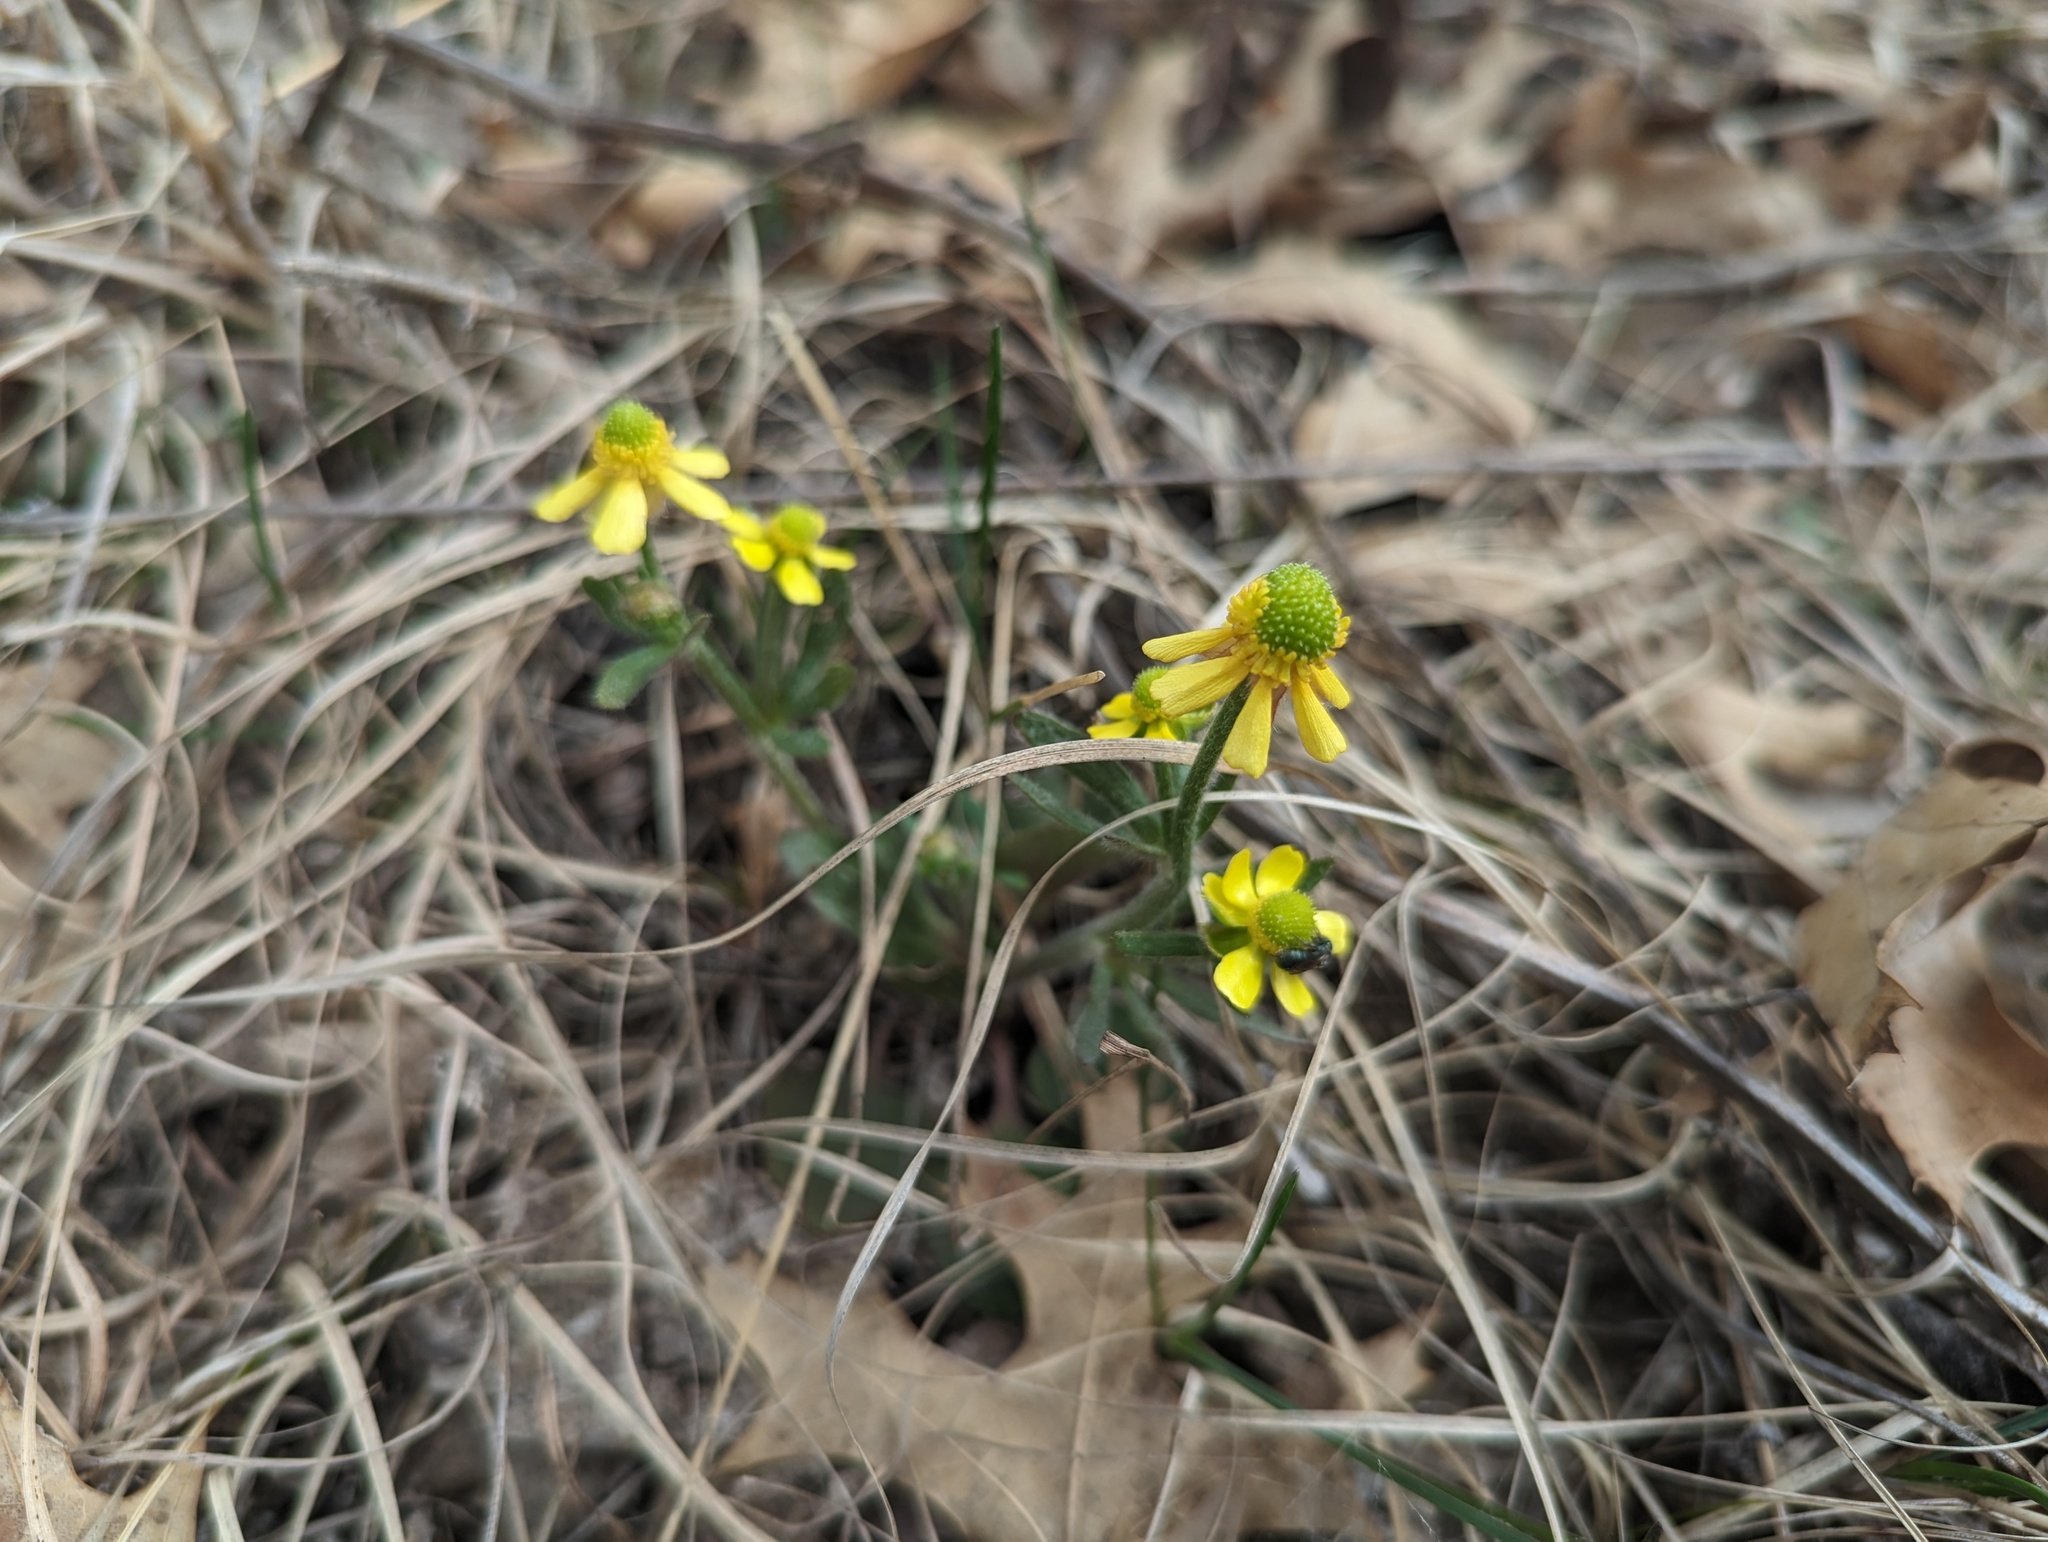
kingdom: Plantae
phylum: Tracheophyta
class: Magnoliopsida
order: Ranunculales
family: Ranunculaceae
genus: Ranunculus
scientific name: Ranunculus rhomboideus
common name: Prairie buttercup
